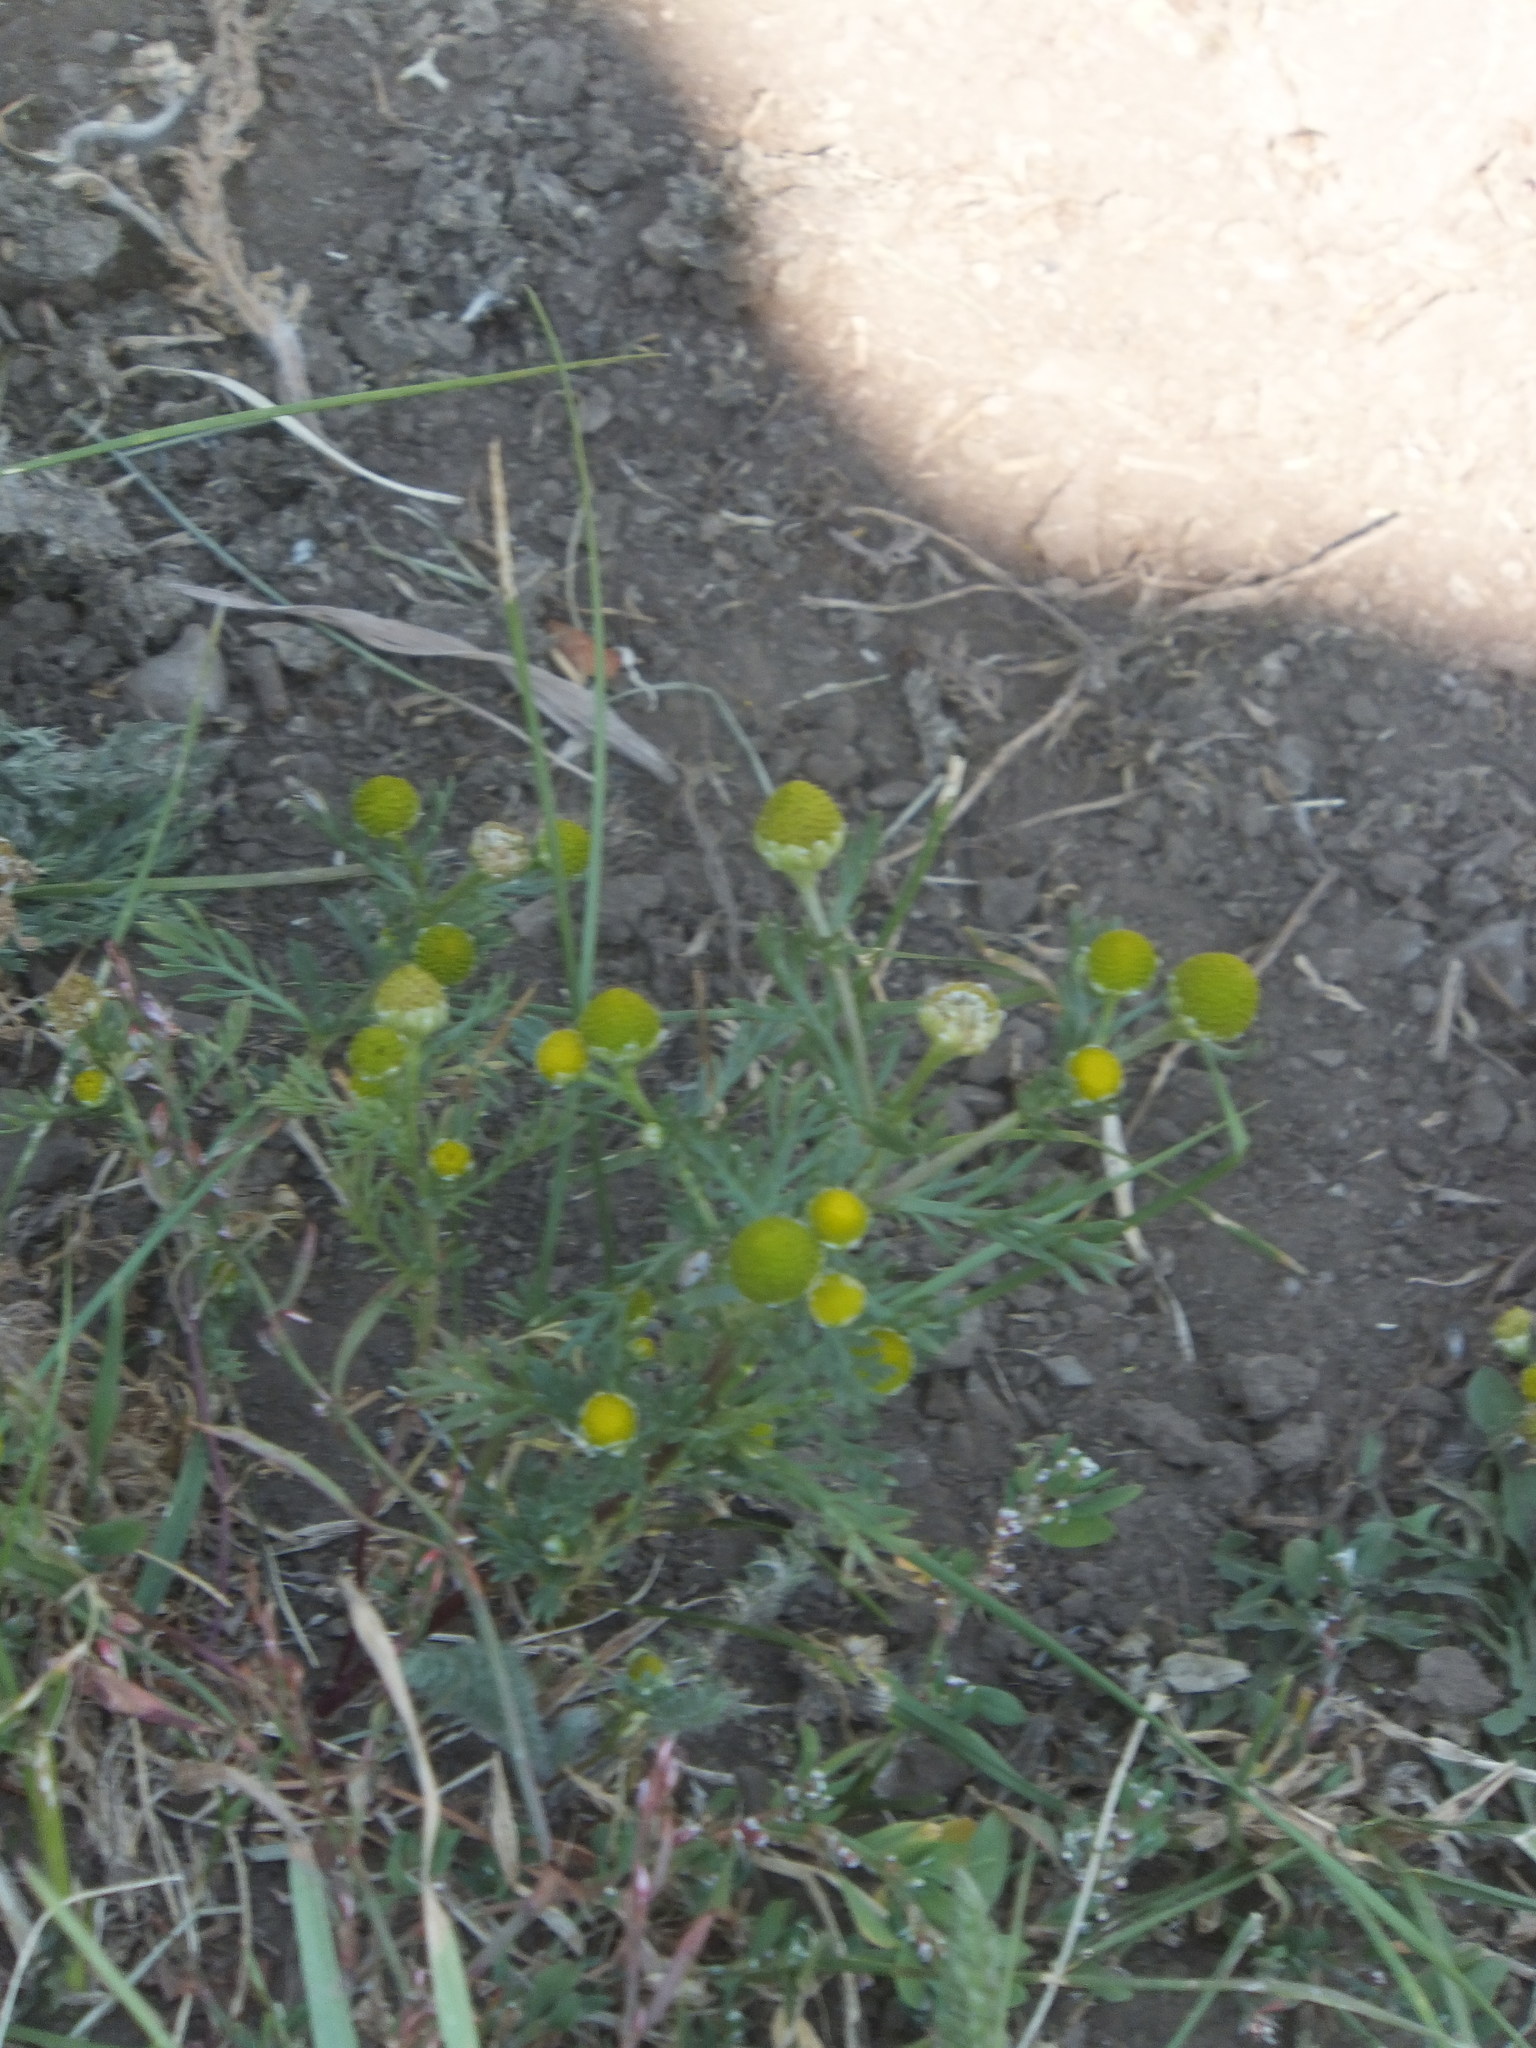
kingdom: Plantae
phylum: Tracheophyta
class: Magnoliopsida
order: Asterales
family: Asteraceae
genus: Matricaria
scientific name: Matricaria discoidea
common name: Disc mayweed
